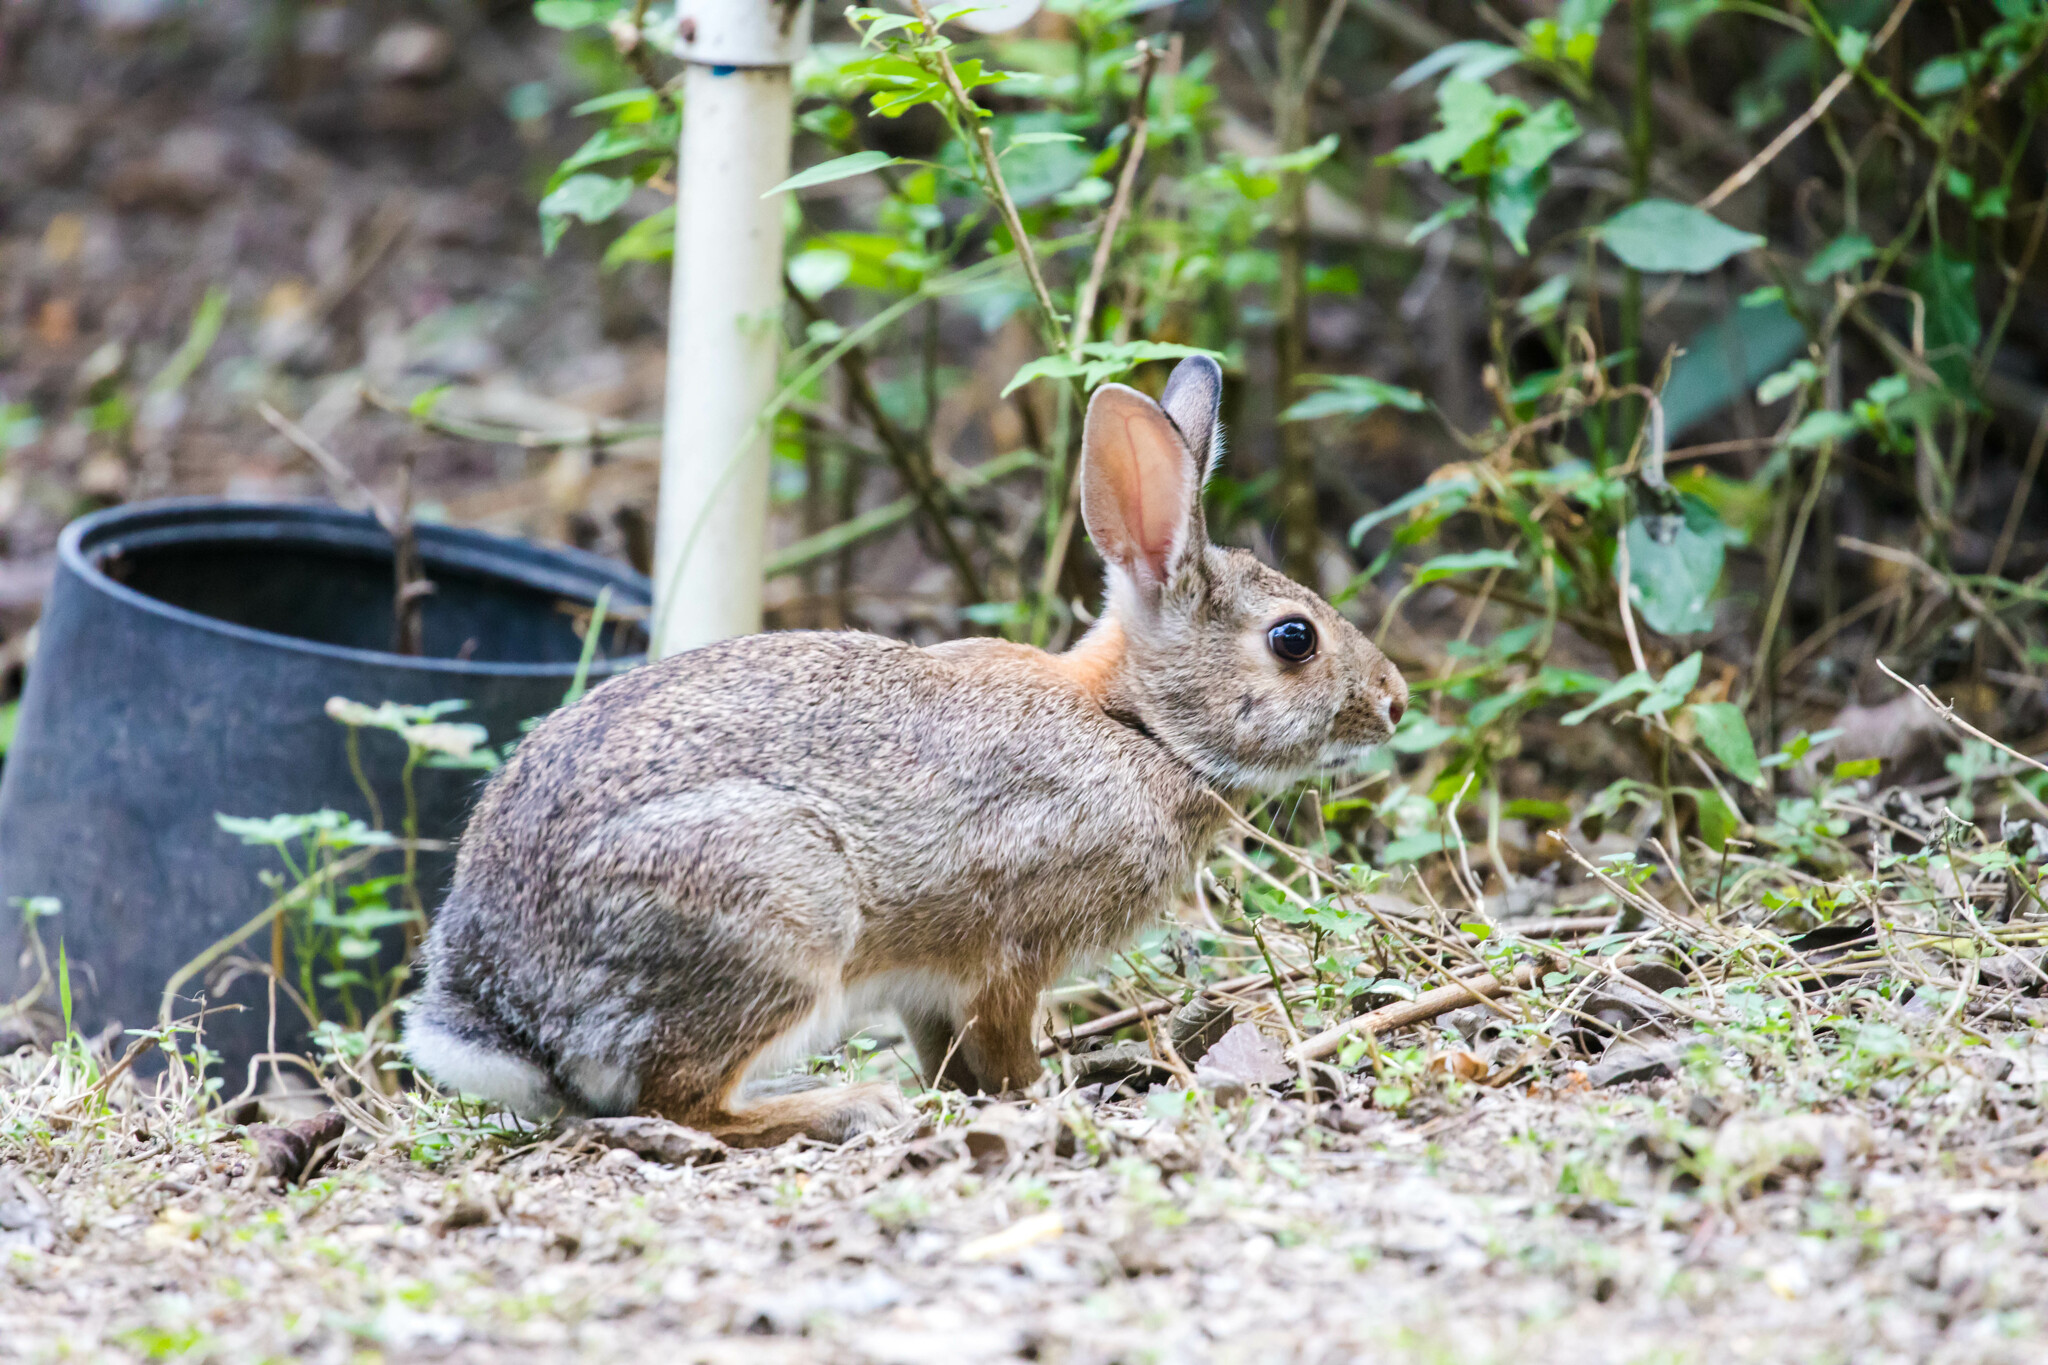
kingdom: Animalia
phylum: Chordata
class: Mammalia
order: Lagomorpha
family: Leporidae
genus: Sylvilagus
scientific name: Sylvilagus floridanus
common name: Eastern cottontail
